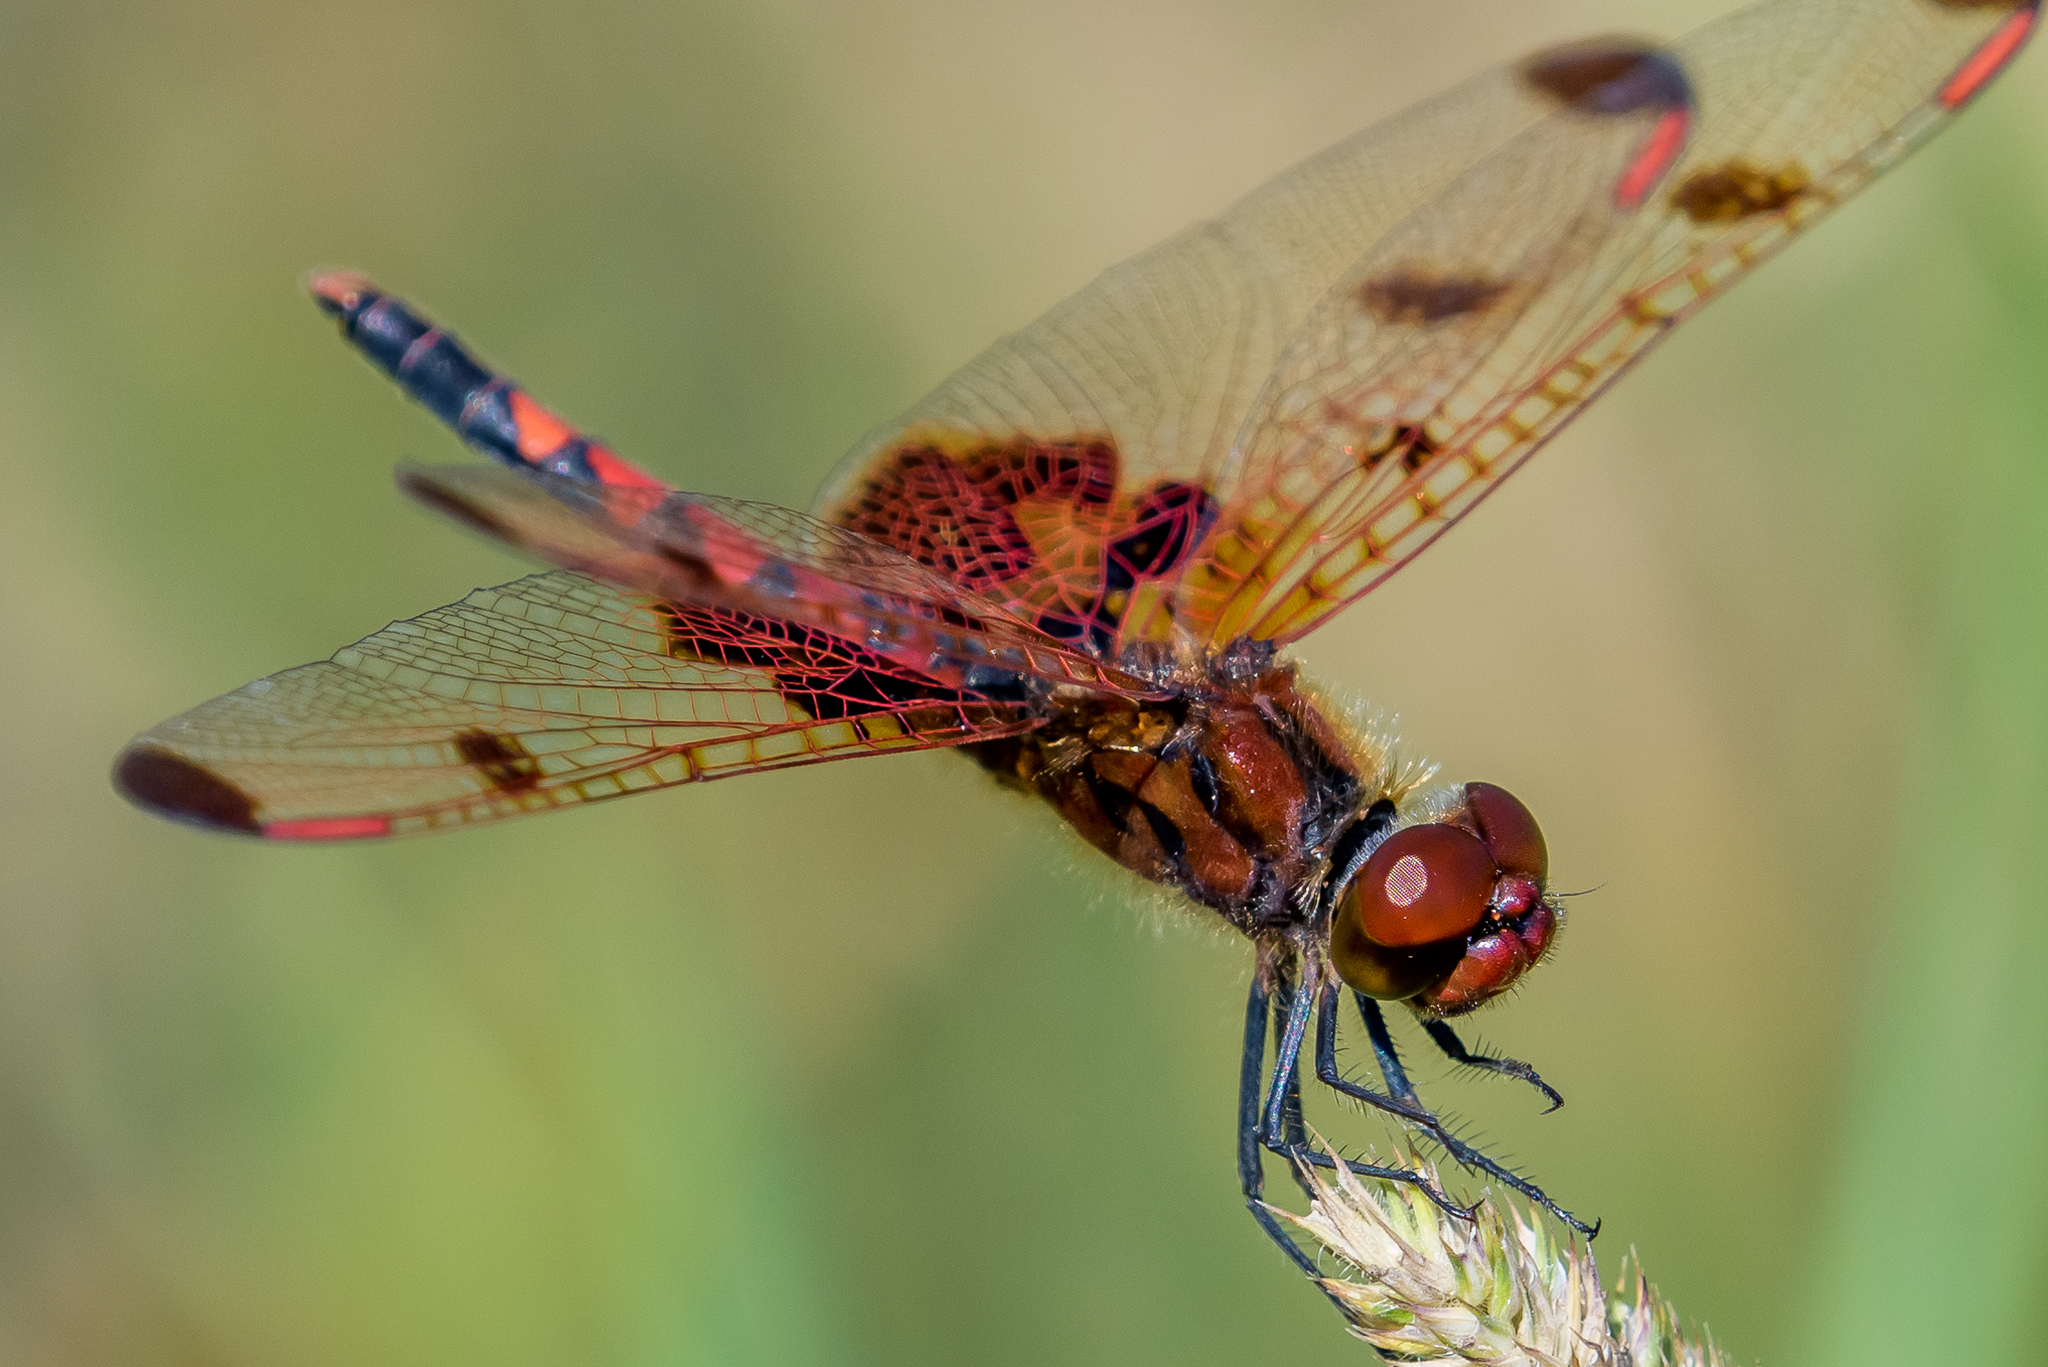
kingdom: Animalia
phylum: Arthropoda
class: Insecta
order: Odonata
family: Libellulidae
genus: Celithemis
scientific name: Celithemis elisa
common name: Calico pennant
